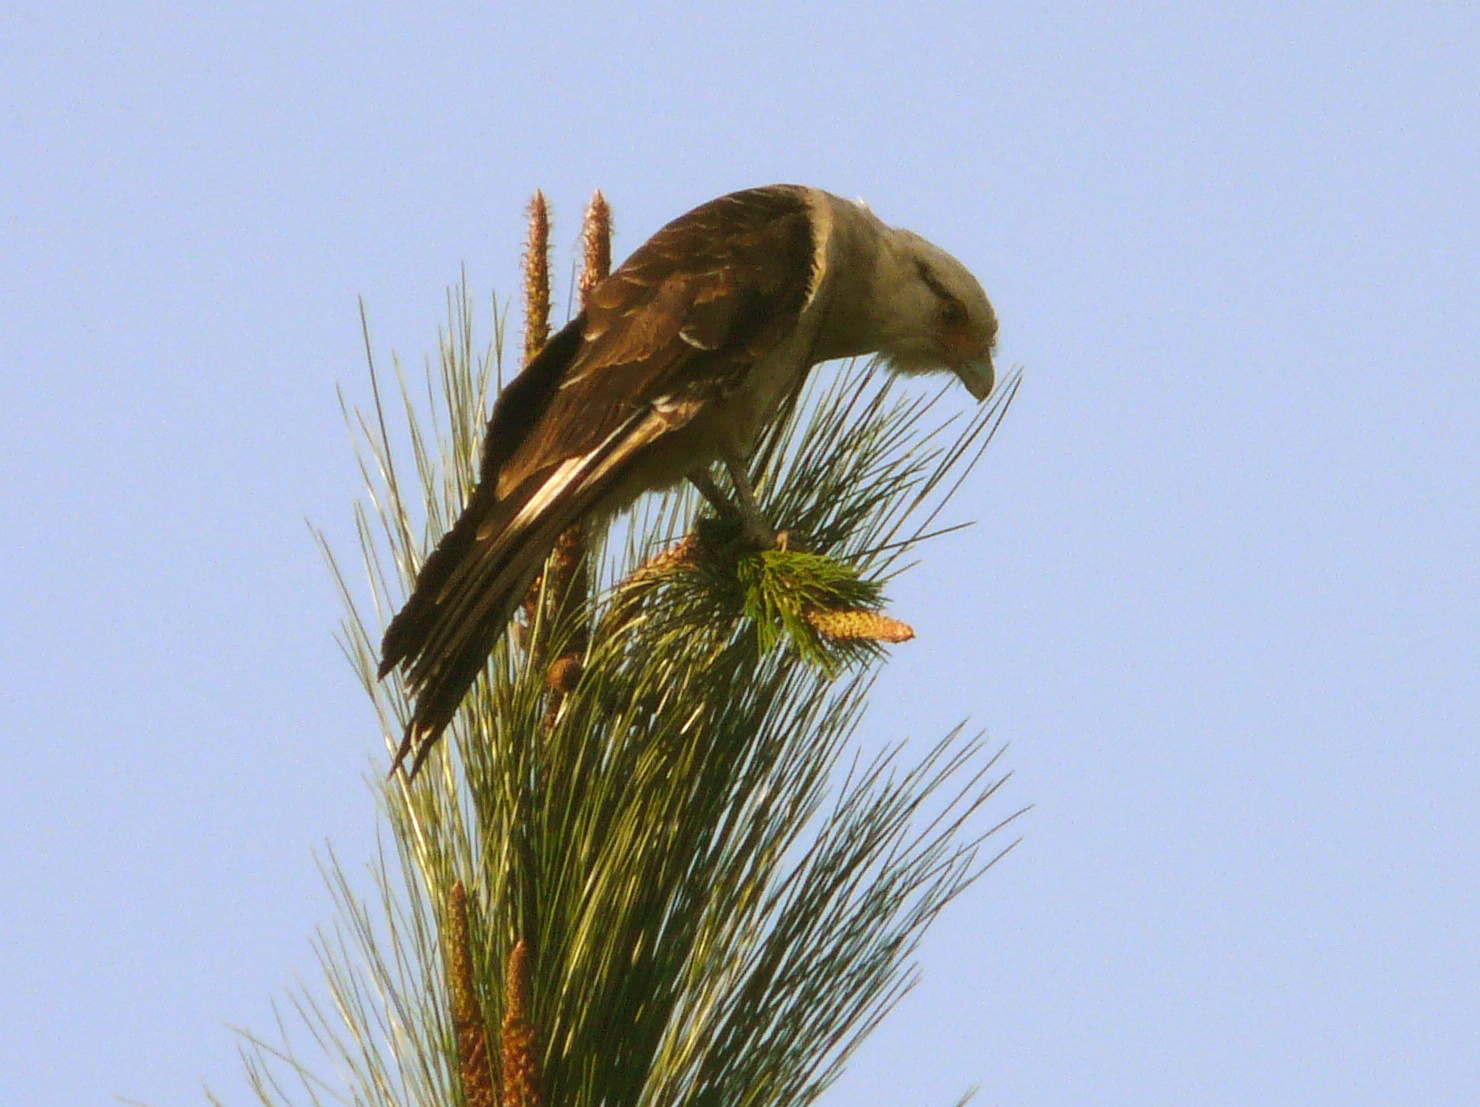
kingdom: Animalia
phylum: Chordata
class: Aves
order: Falconiformes
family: Falconidae
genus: Daptrius
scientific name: Daptrius
